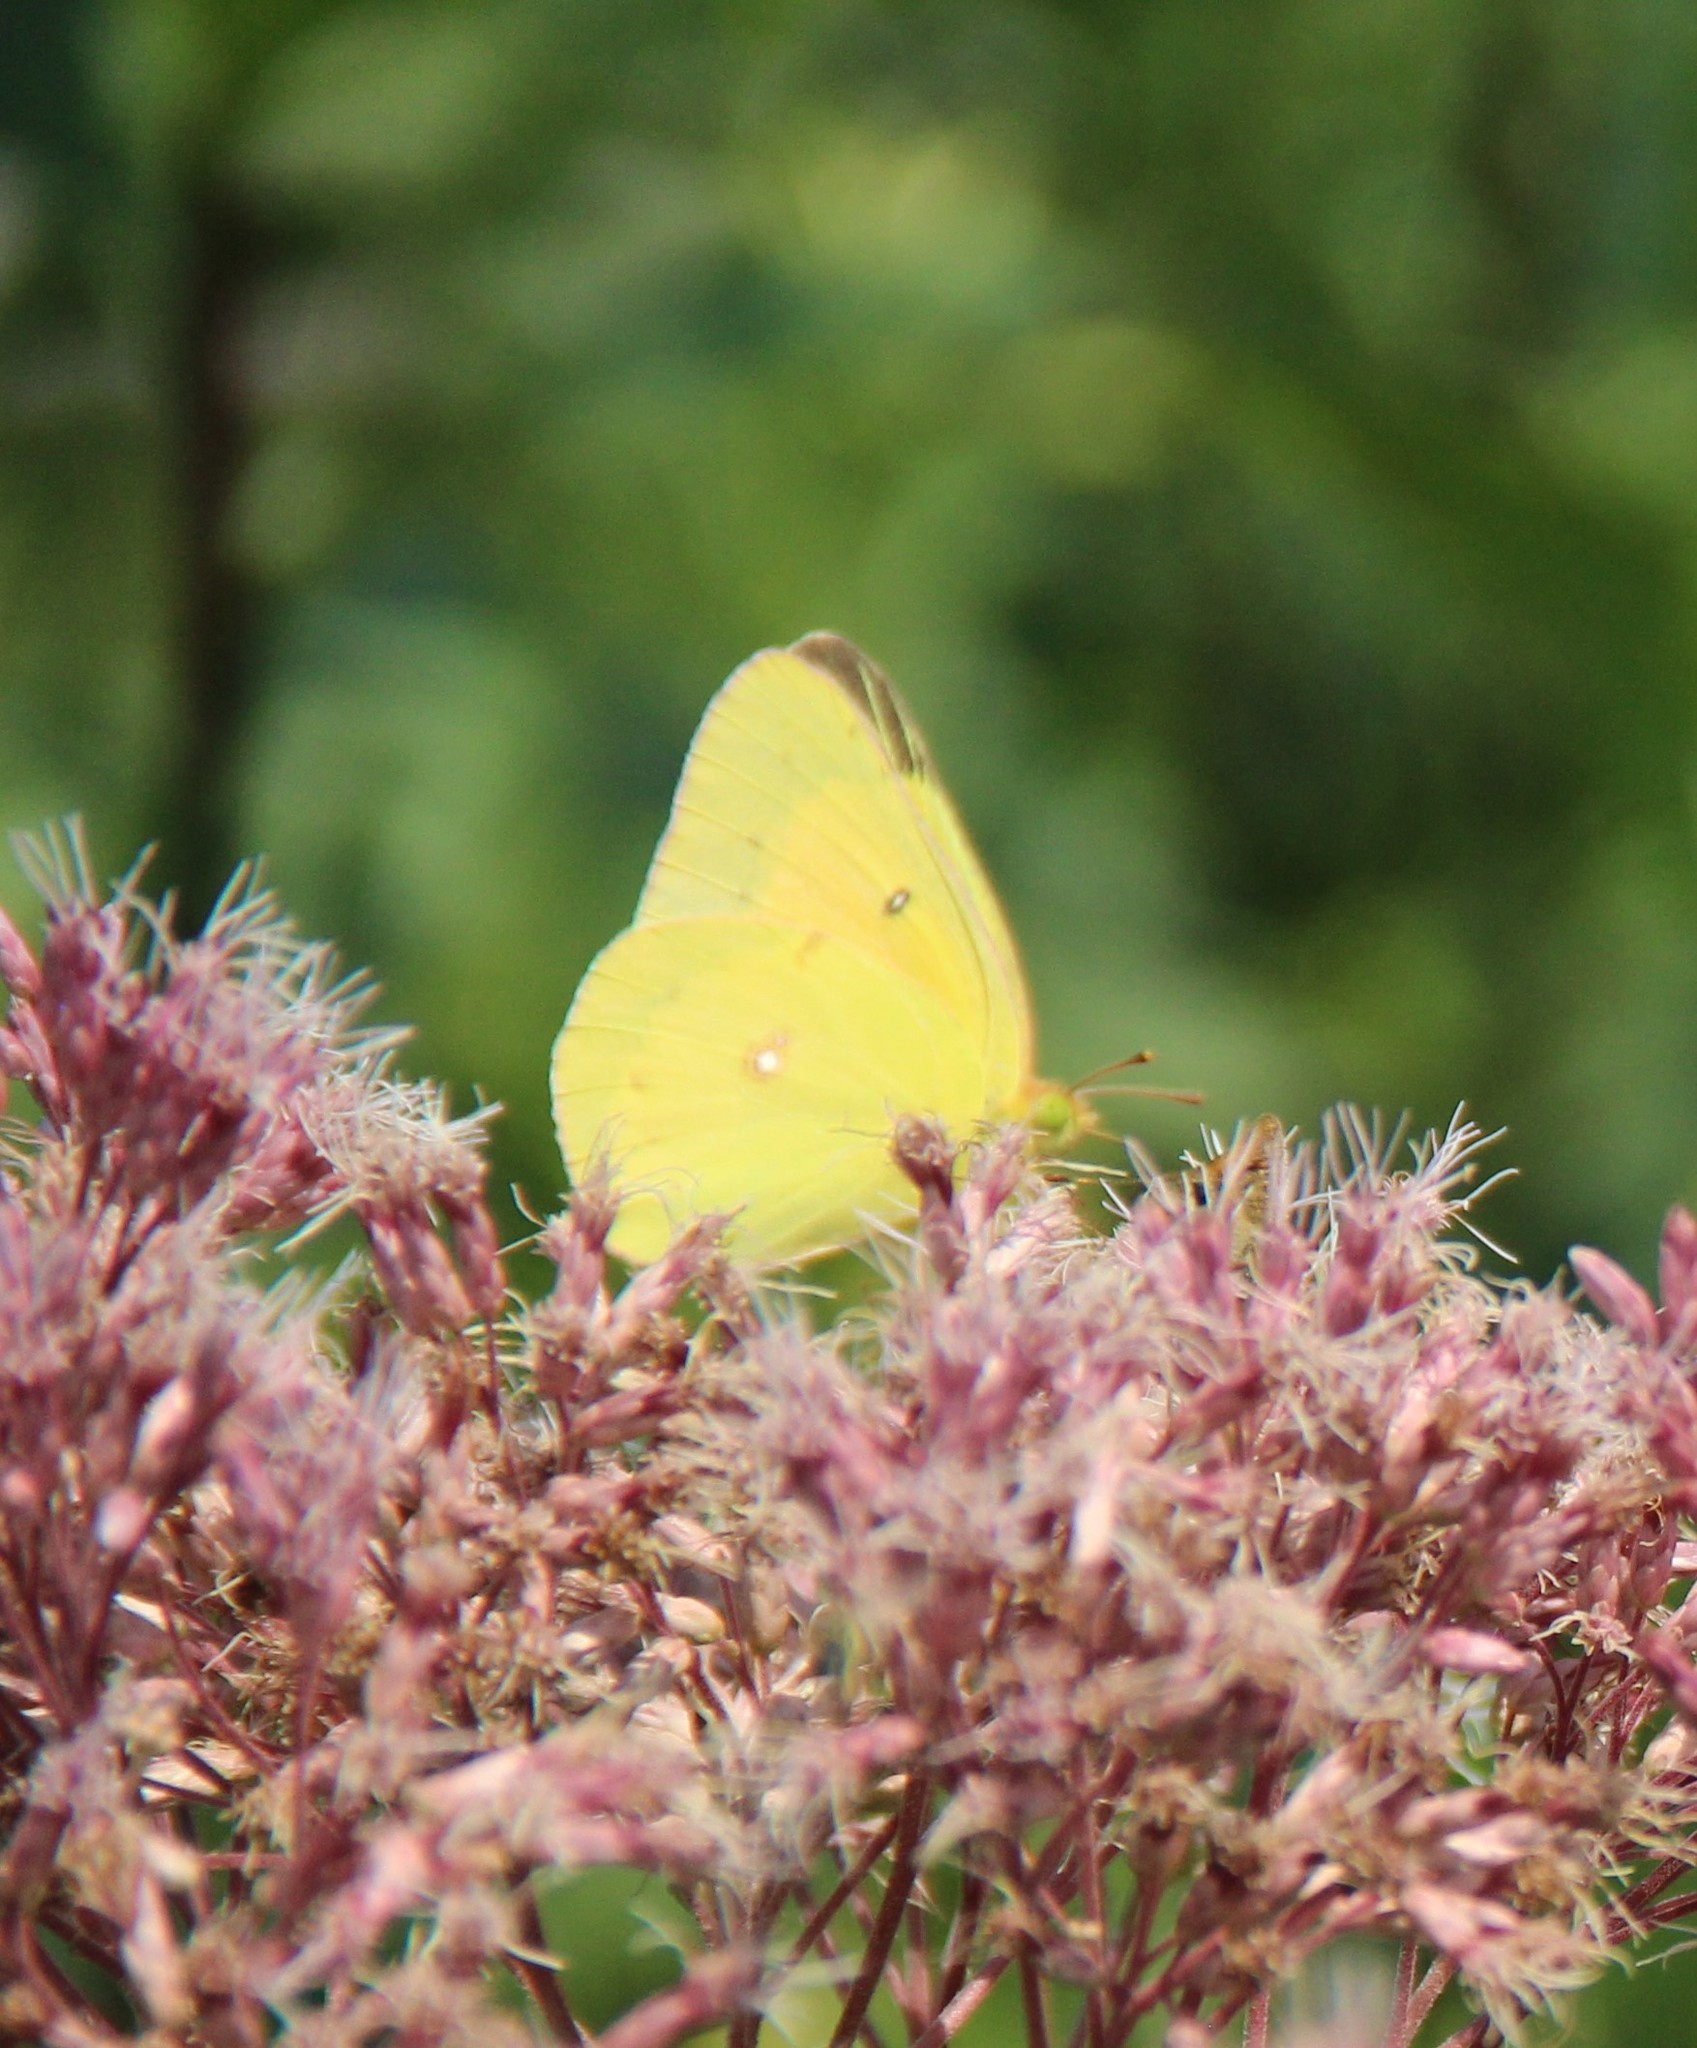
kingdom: Animalia
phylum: Arthropoda
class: Insecta
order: Lepidoptera
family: Pieridae
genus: Colias
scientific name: Colias eurytheme
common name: Alfalfa butterfly
